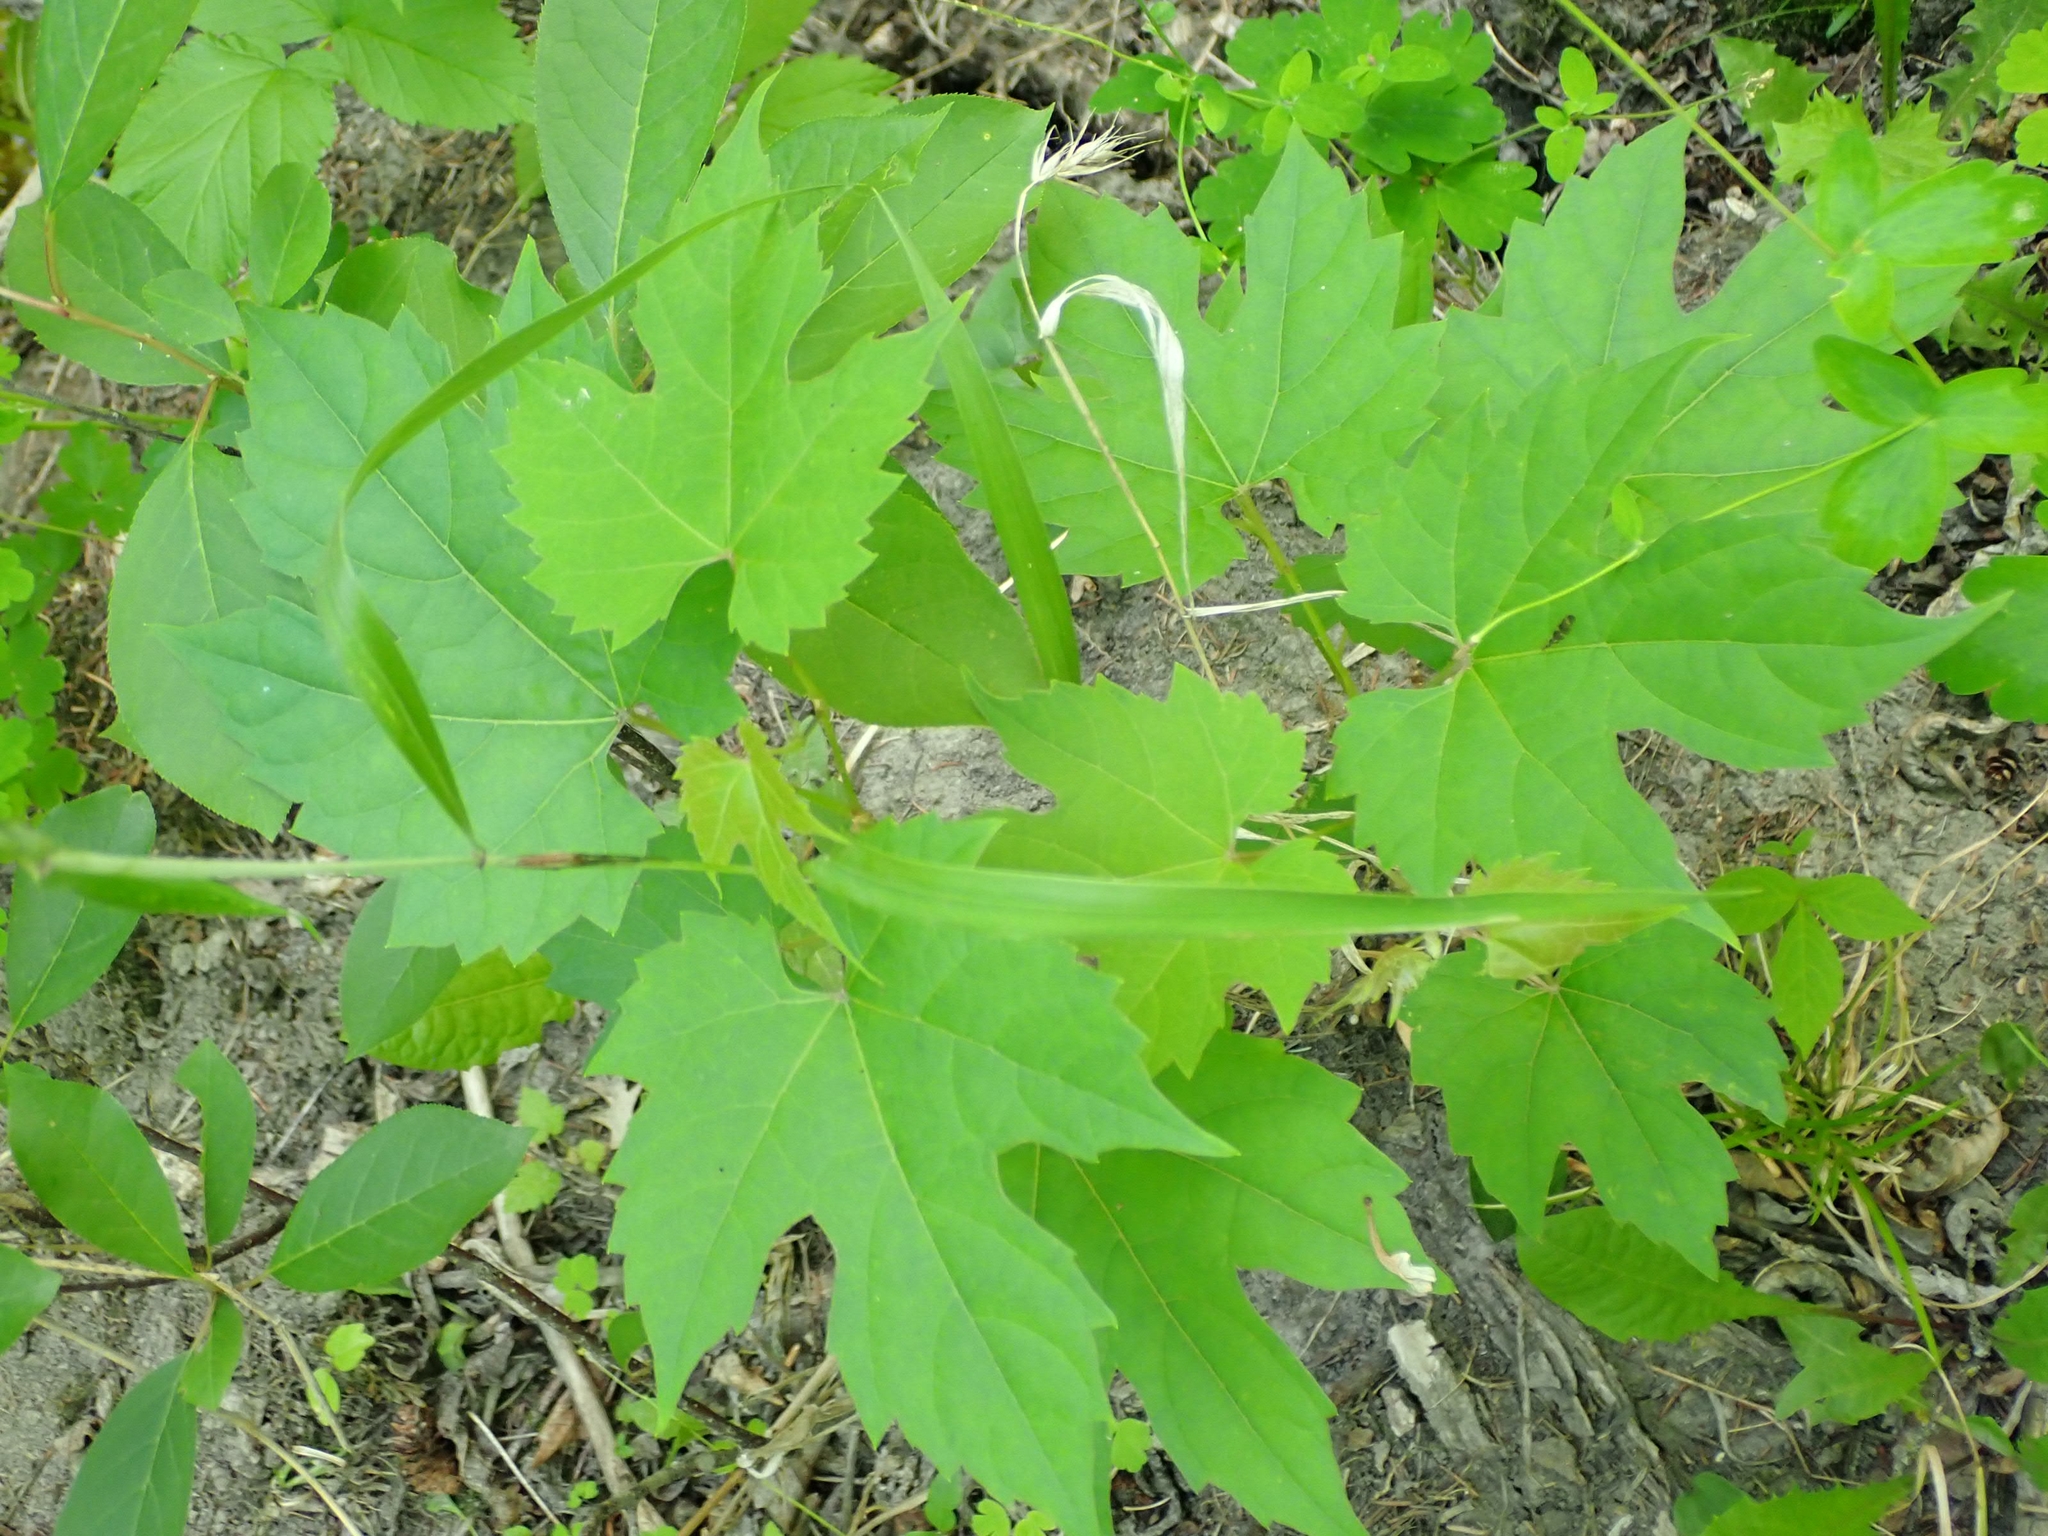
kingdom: Plantae
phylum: Tracheophyta
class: Magnoliopsida
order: Vitales
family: Vitaceae
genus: Vitis
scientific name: Vitis riparia
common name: Frost grape
